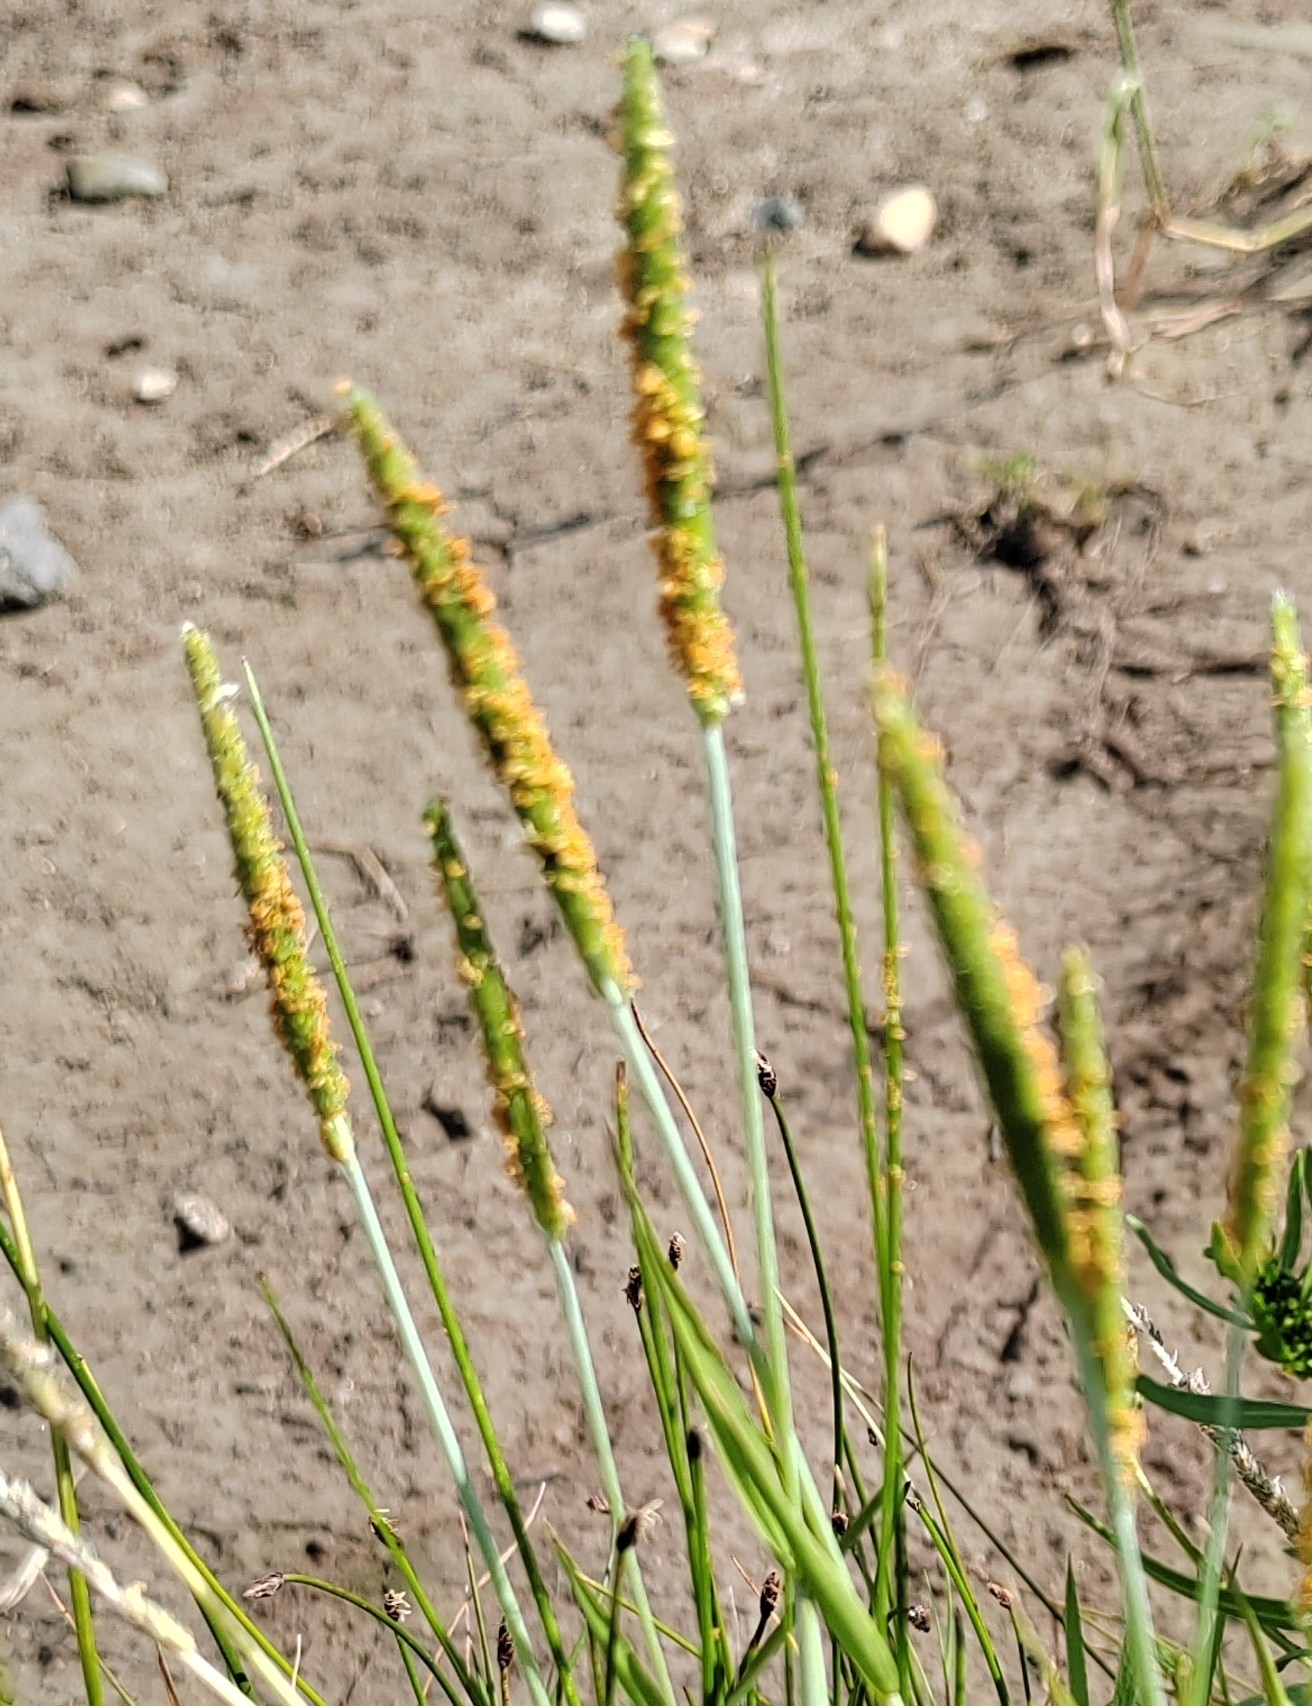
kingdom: Plantae
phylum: Tracheophyta
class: Liliopsida
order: Poales
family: Poaceae
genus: Alopecurus
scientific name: Alopecurus aequalis
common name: Orange foxtail
